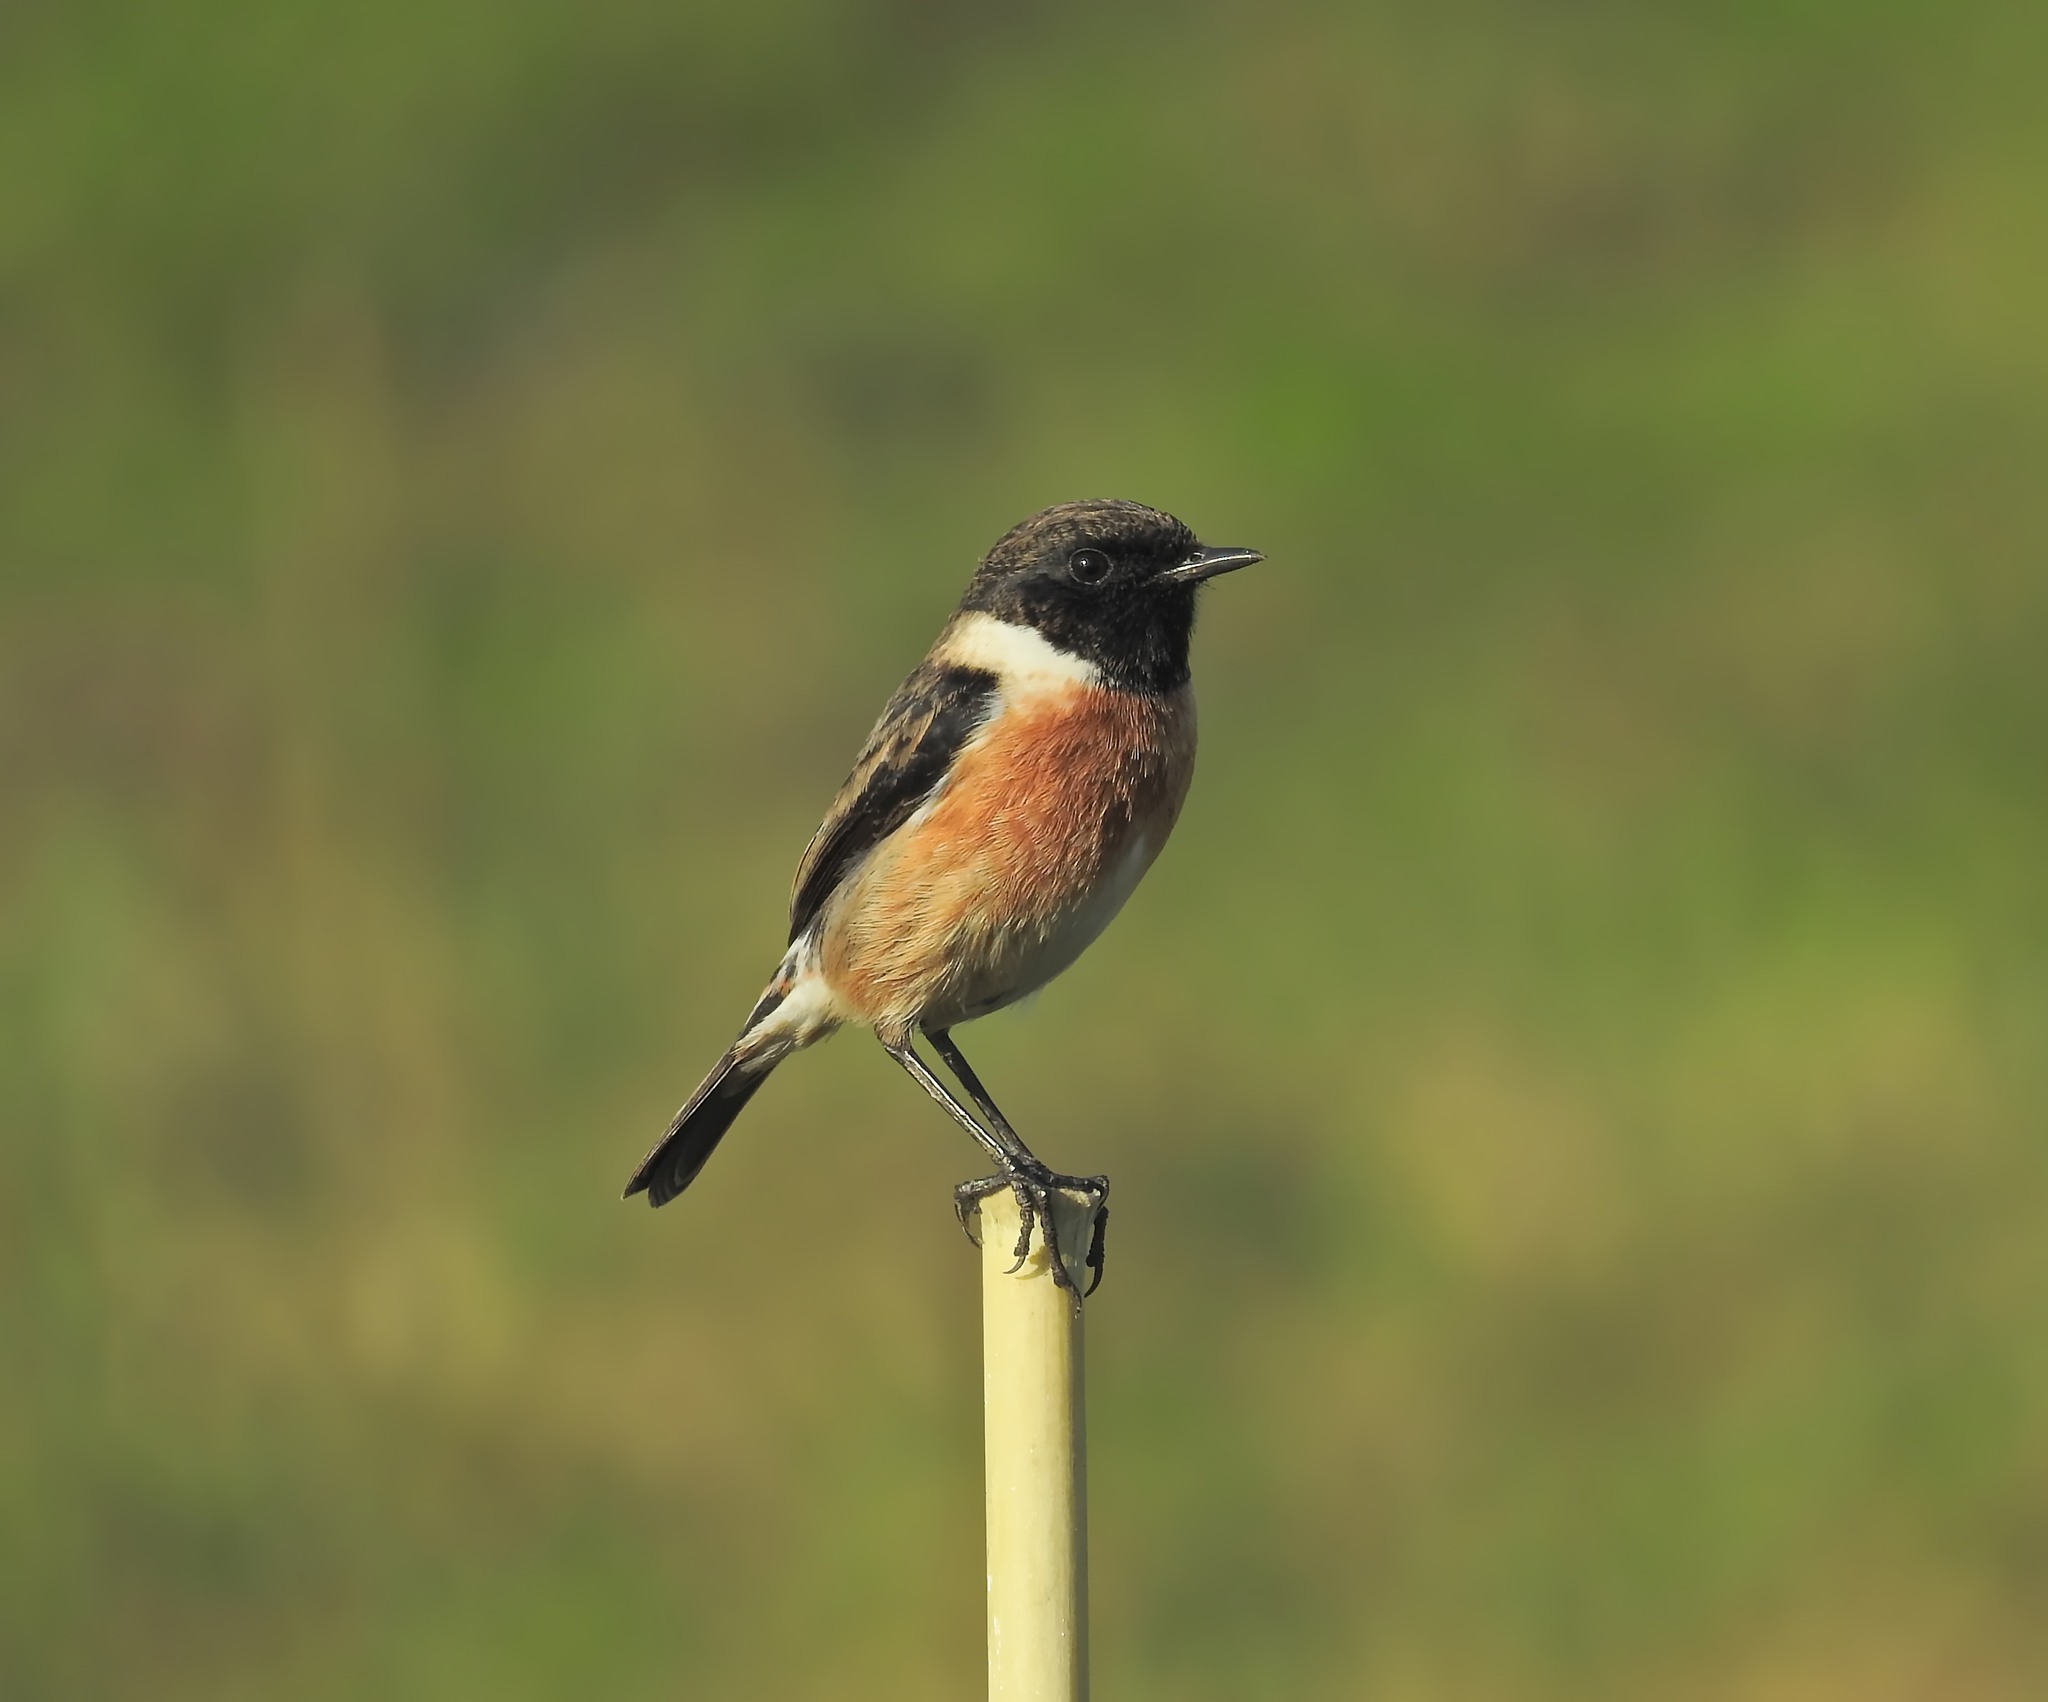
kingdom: Animalia
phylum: Chordata
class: Aves
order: Passeriformes
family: Muscicapidae
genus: Saxicola
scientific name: Saxicola rubicola
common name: European stonechat
